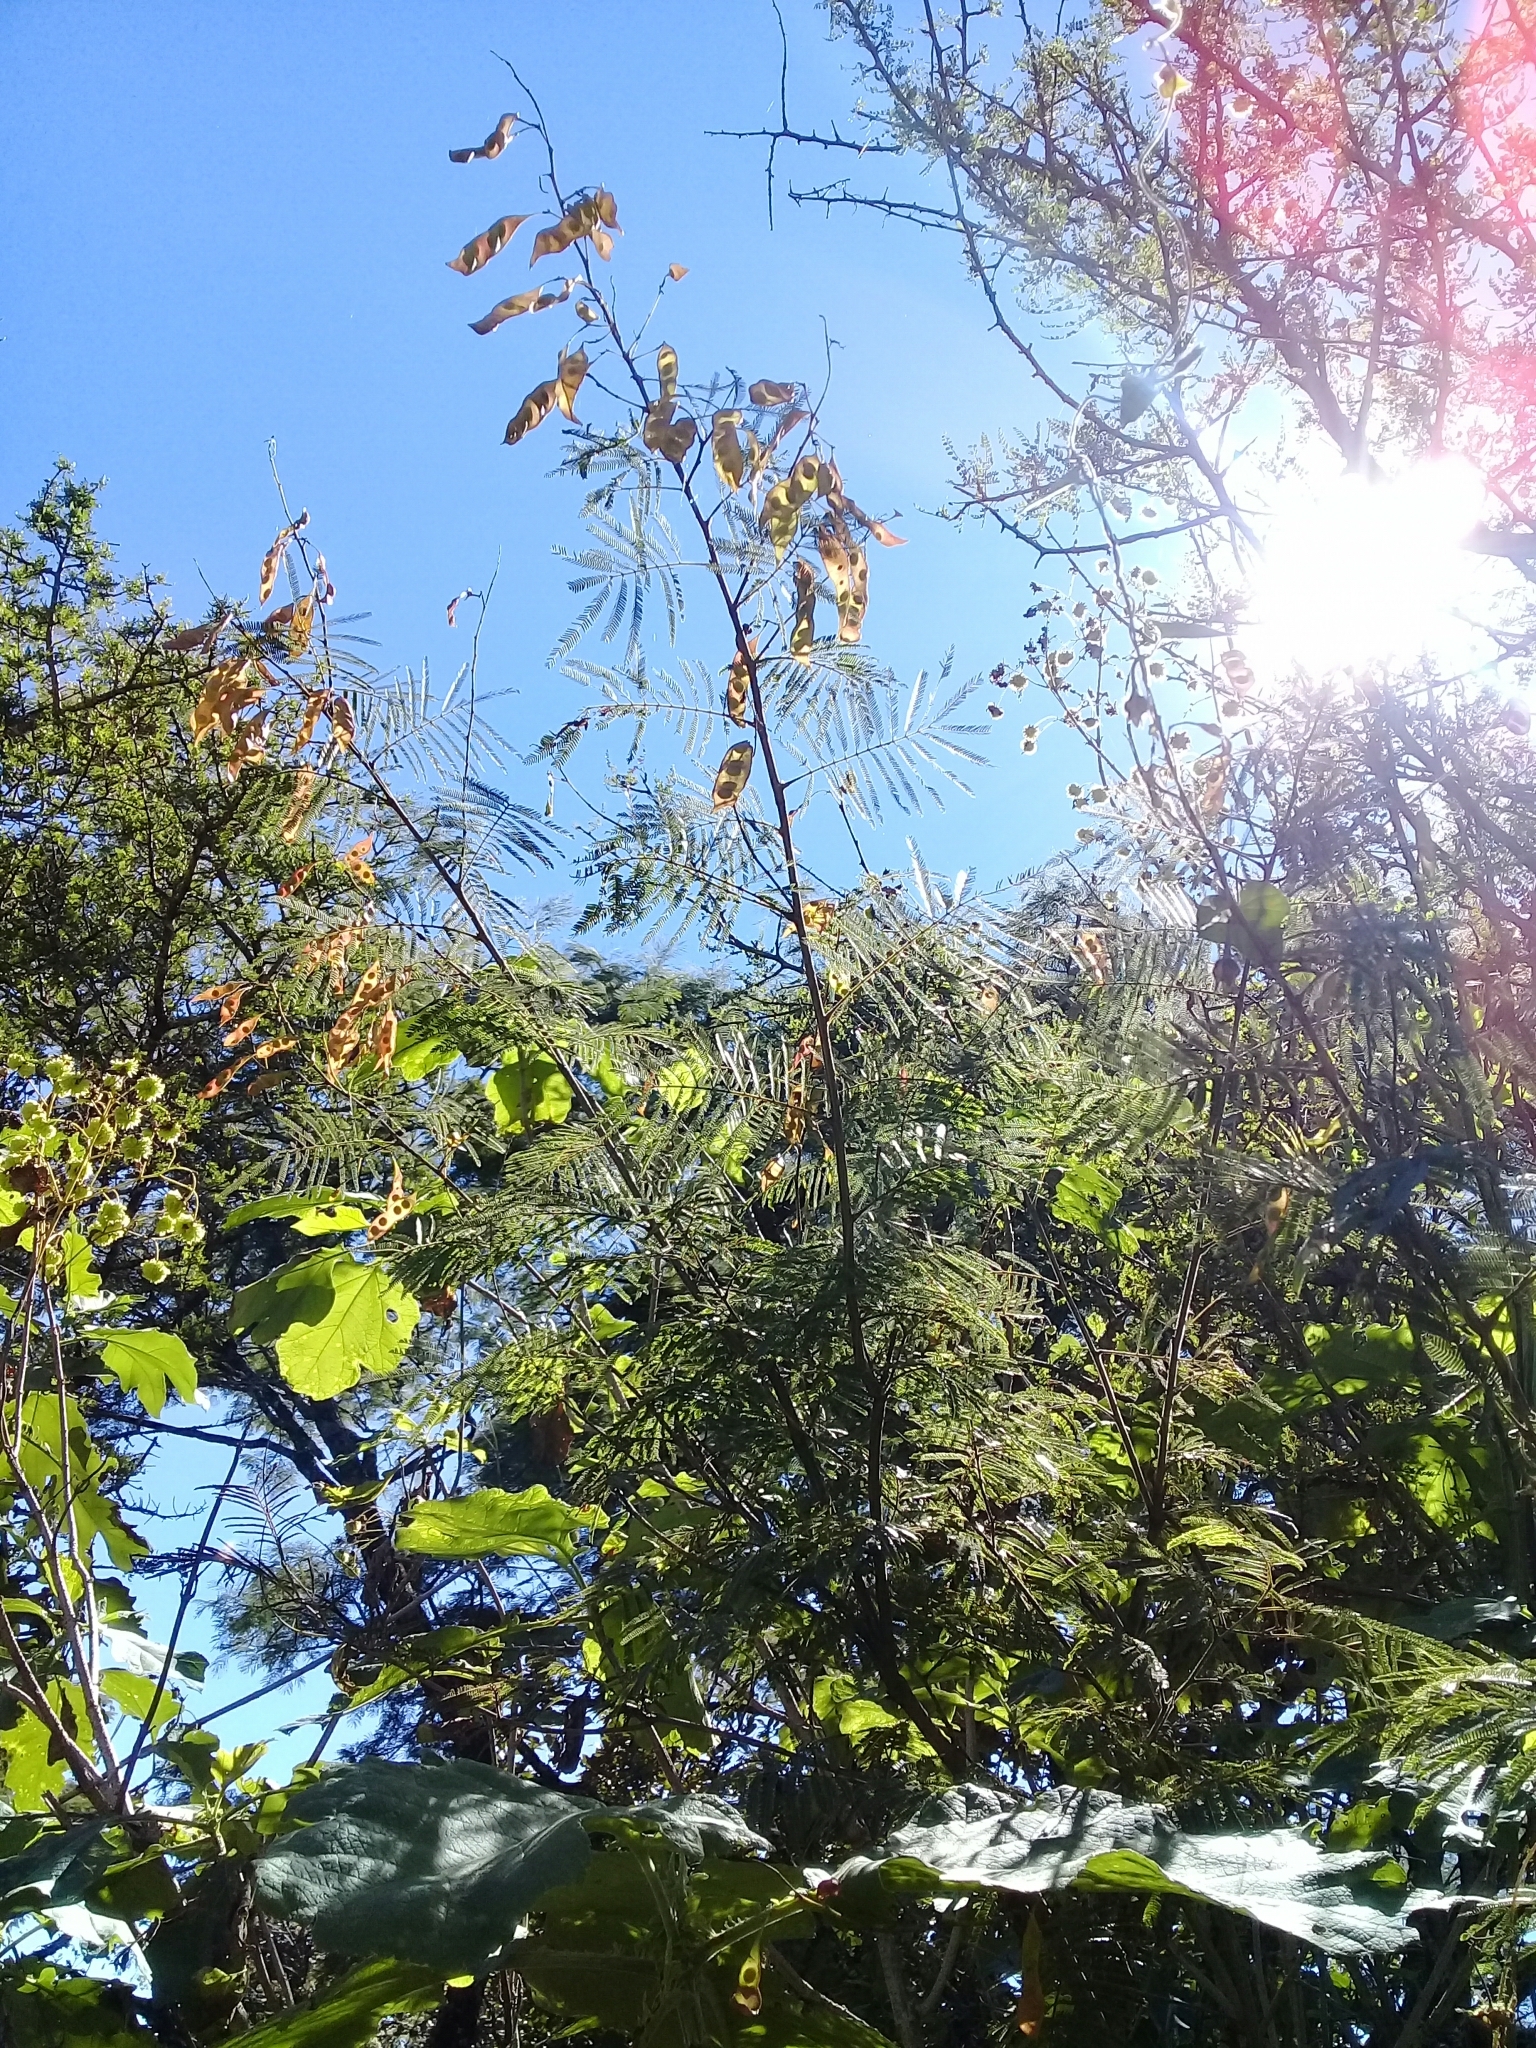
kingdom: Plantae
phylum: Tracheophyta
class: Magnoliopsida
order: Fabales
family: Fabaceae
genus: Acaciella
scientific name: Acaciella angustissima
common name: Prairie acacia
